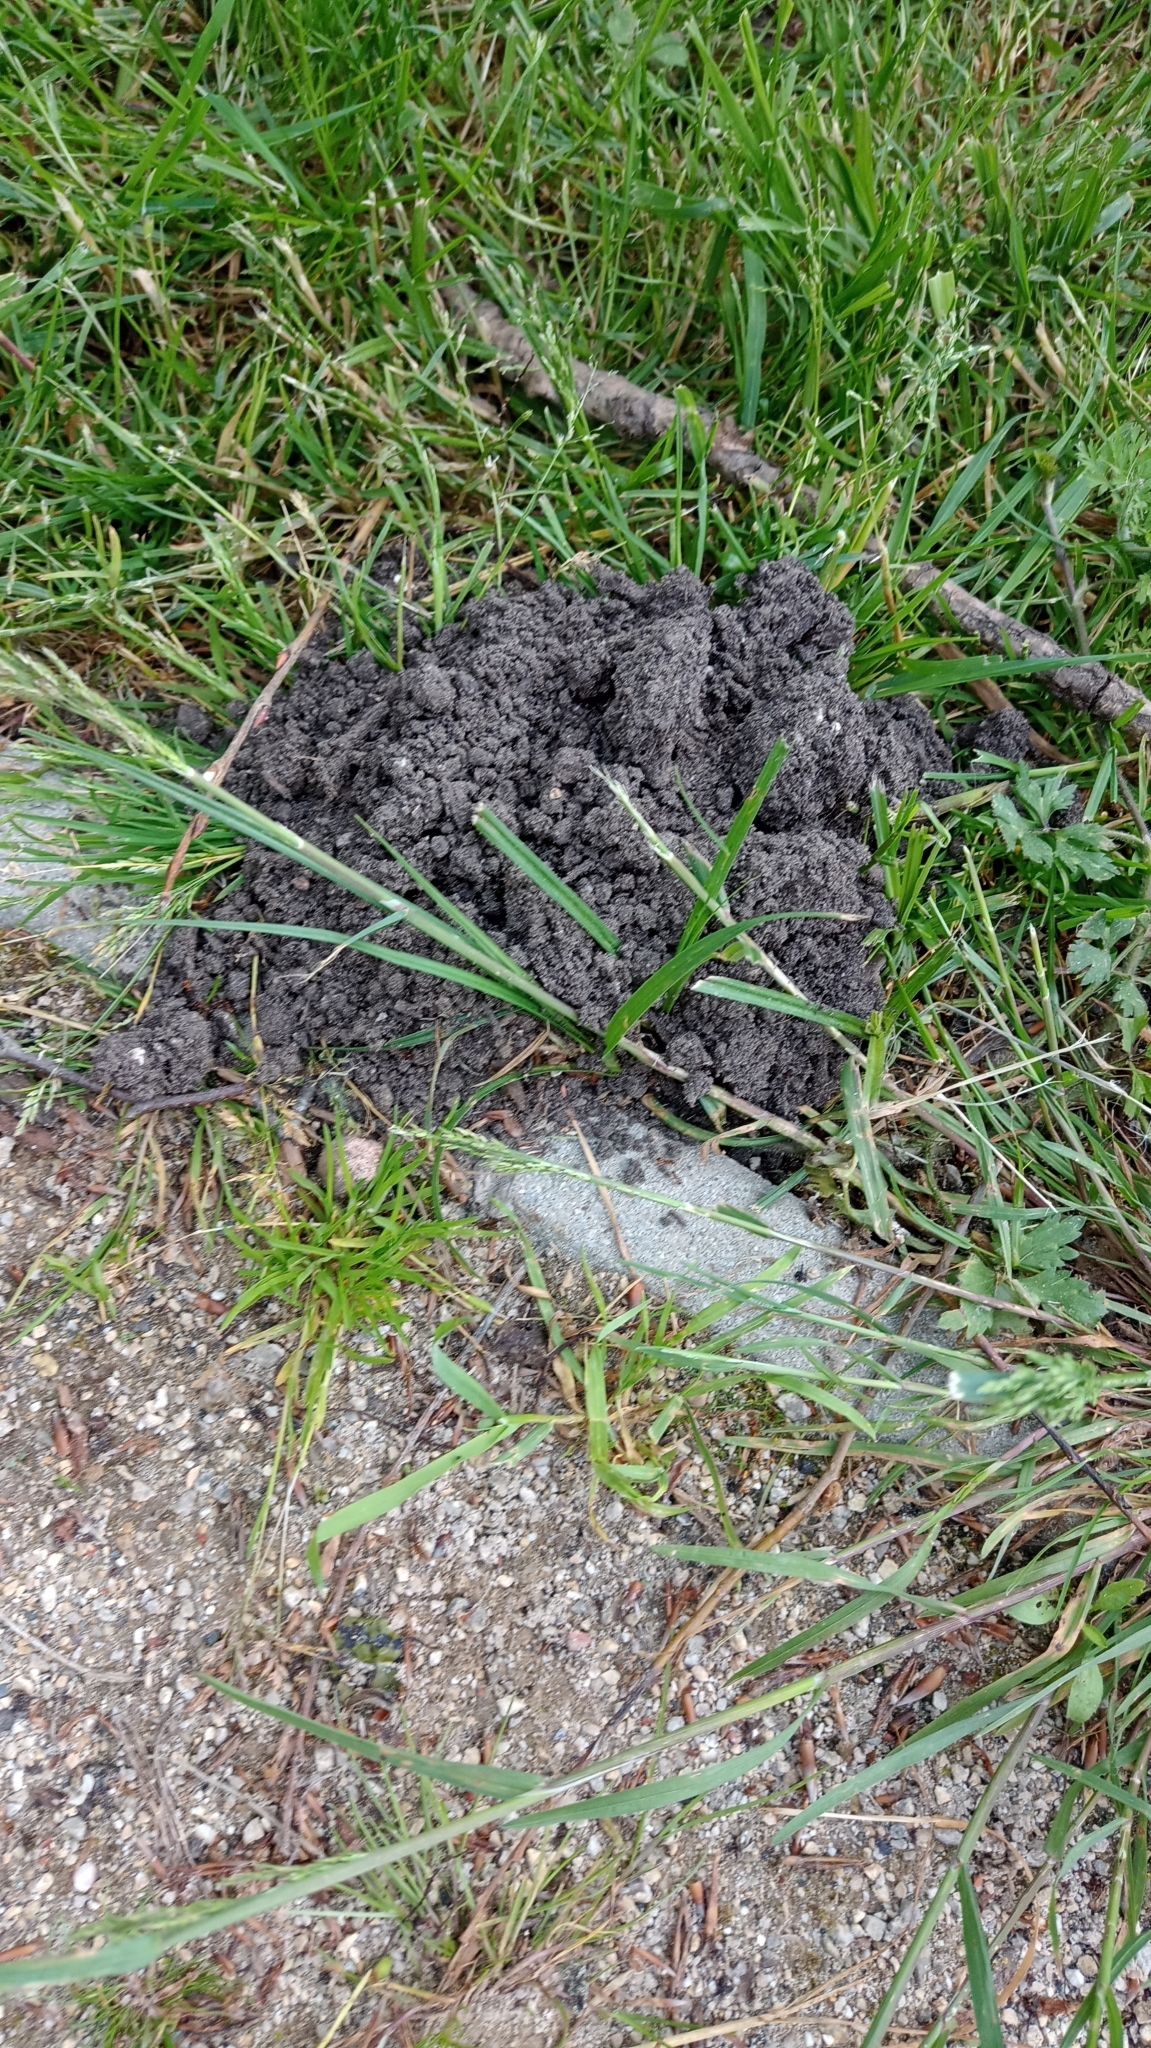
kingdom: Animalia
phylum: Chordata
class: Mammalia
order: Soricomorpha
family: Talpidae
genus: Talpa
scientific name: Talpa europaea
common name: European mole
